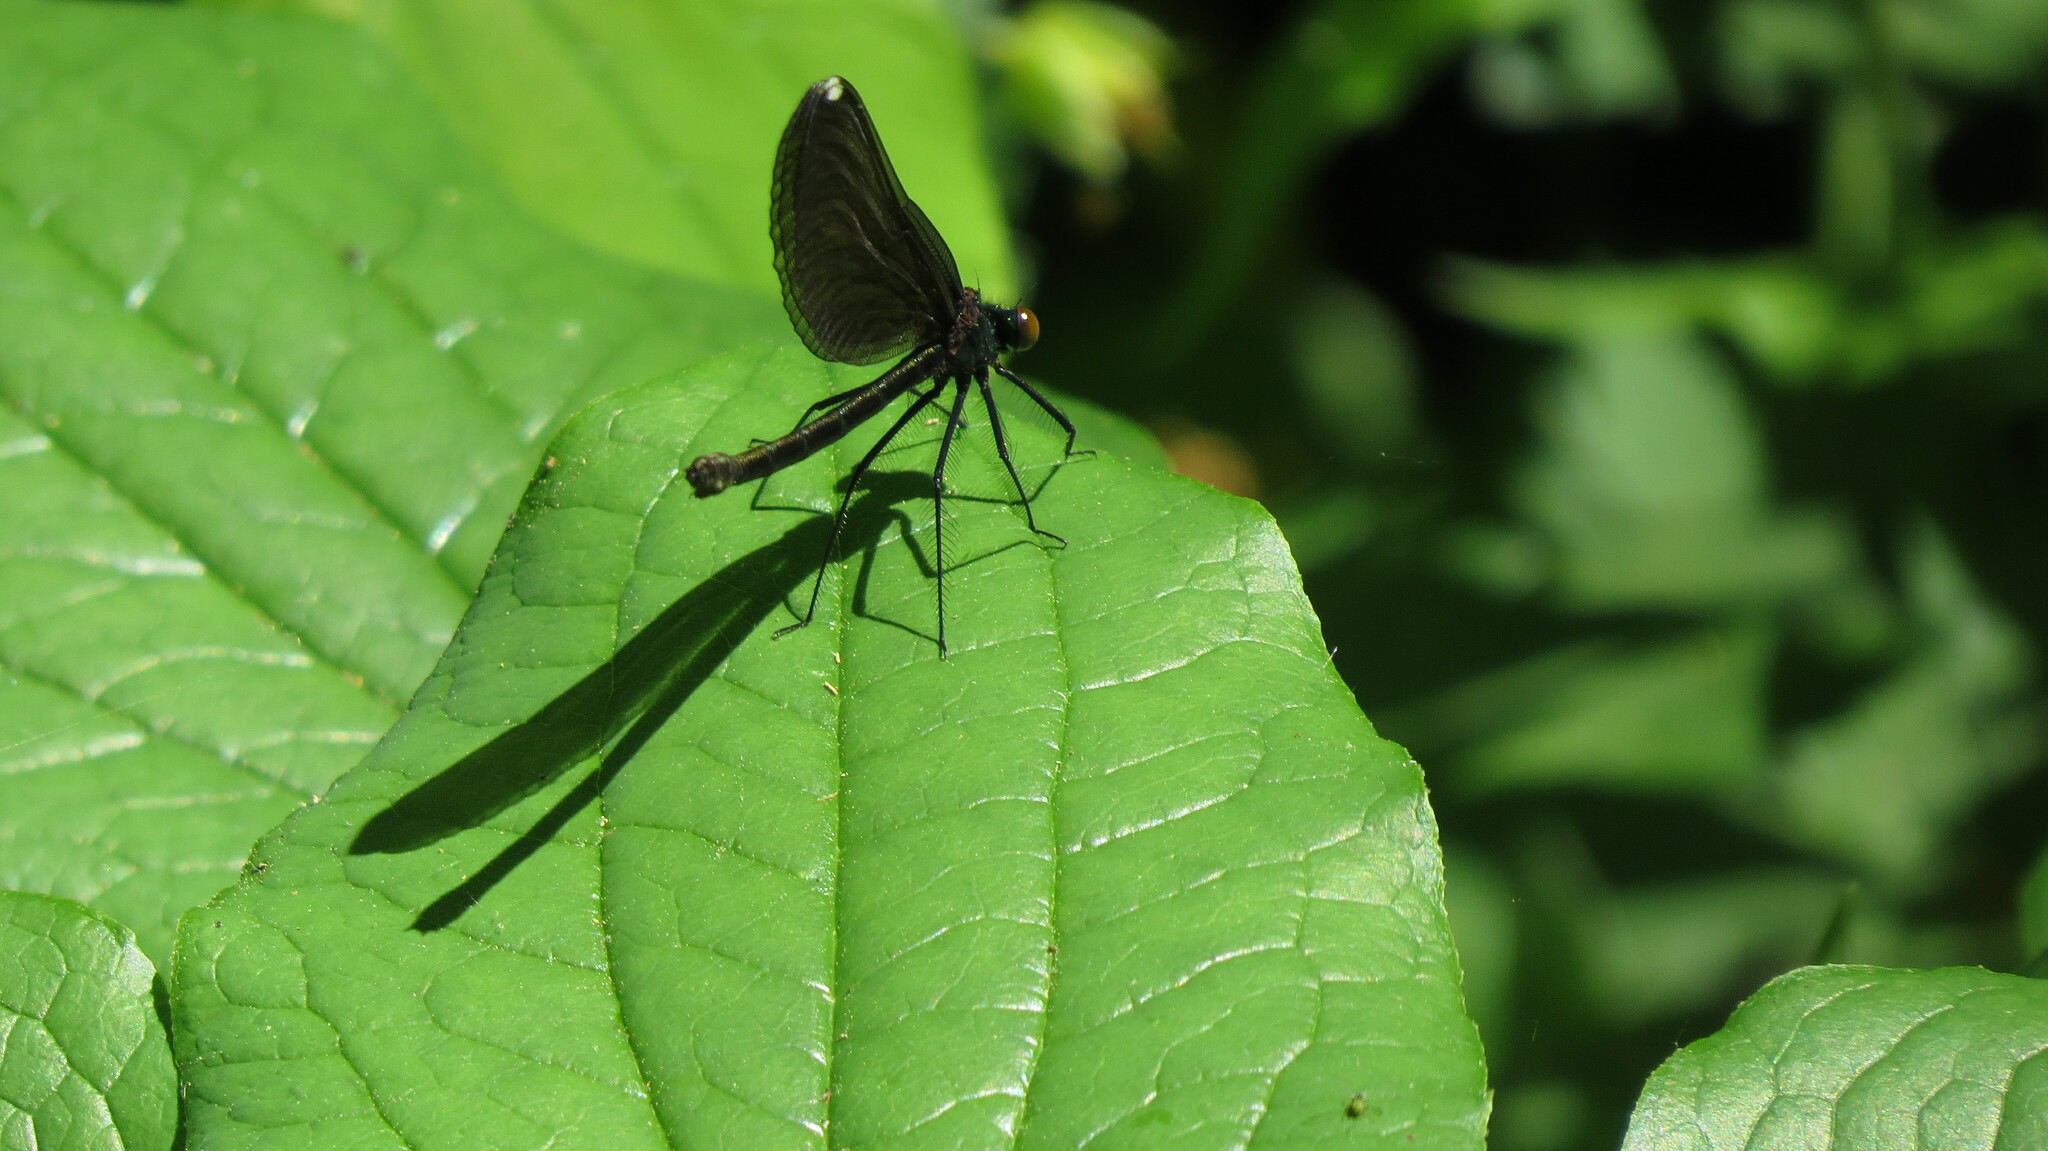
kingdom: Animalia
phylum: Arthropoda
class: Insecta
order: Odonata
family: Calopterygidae
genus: Calopteryx
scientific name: Calopteryx maculata
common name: Ebony jewelwing
